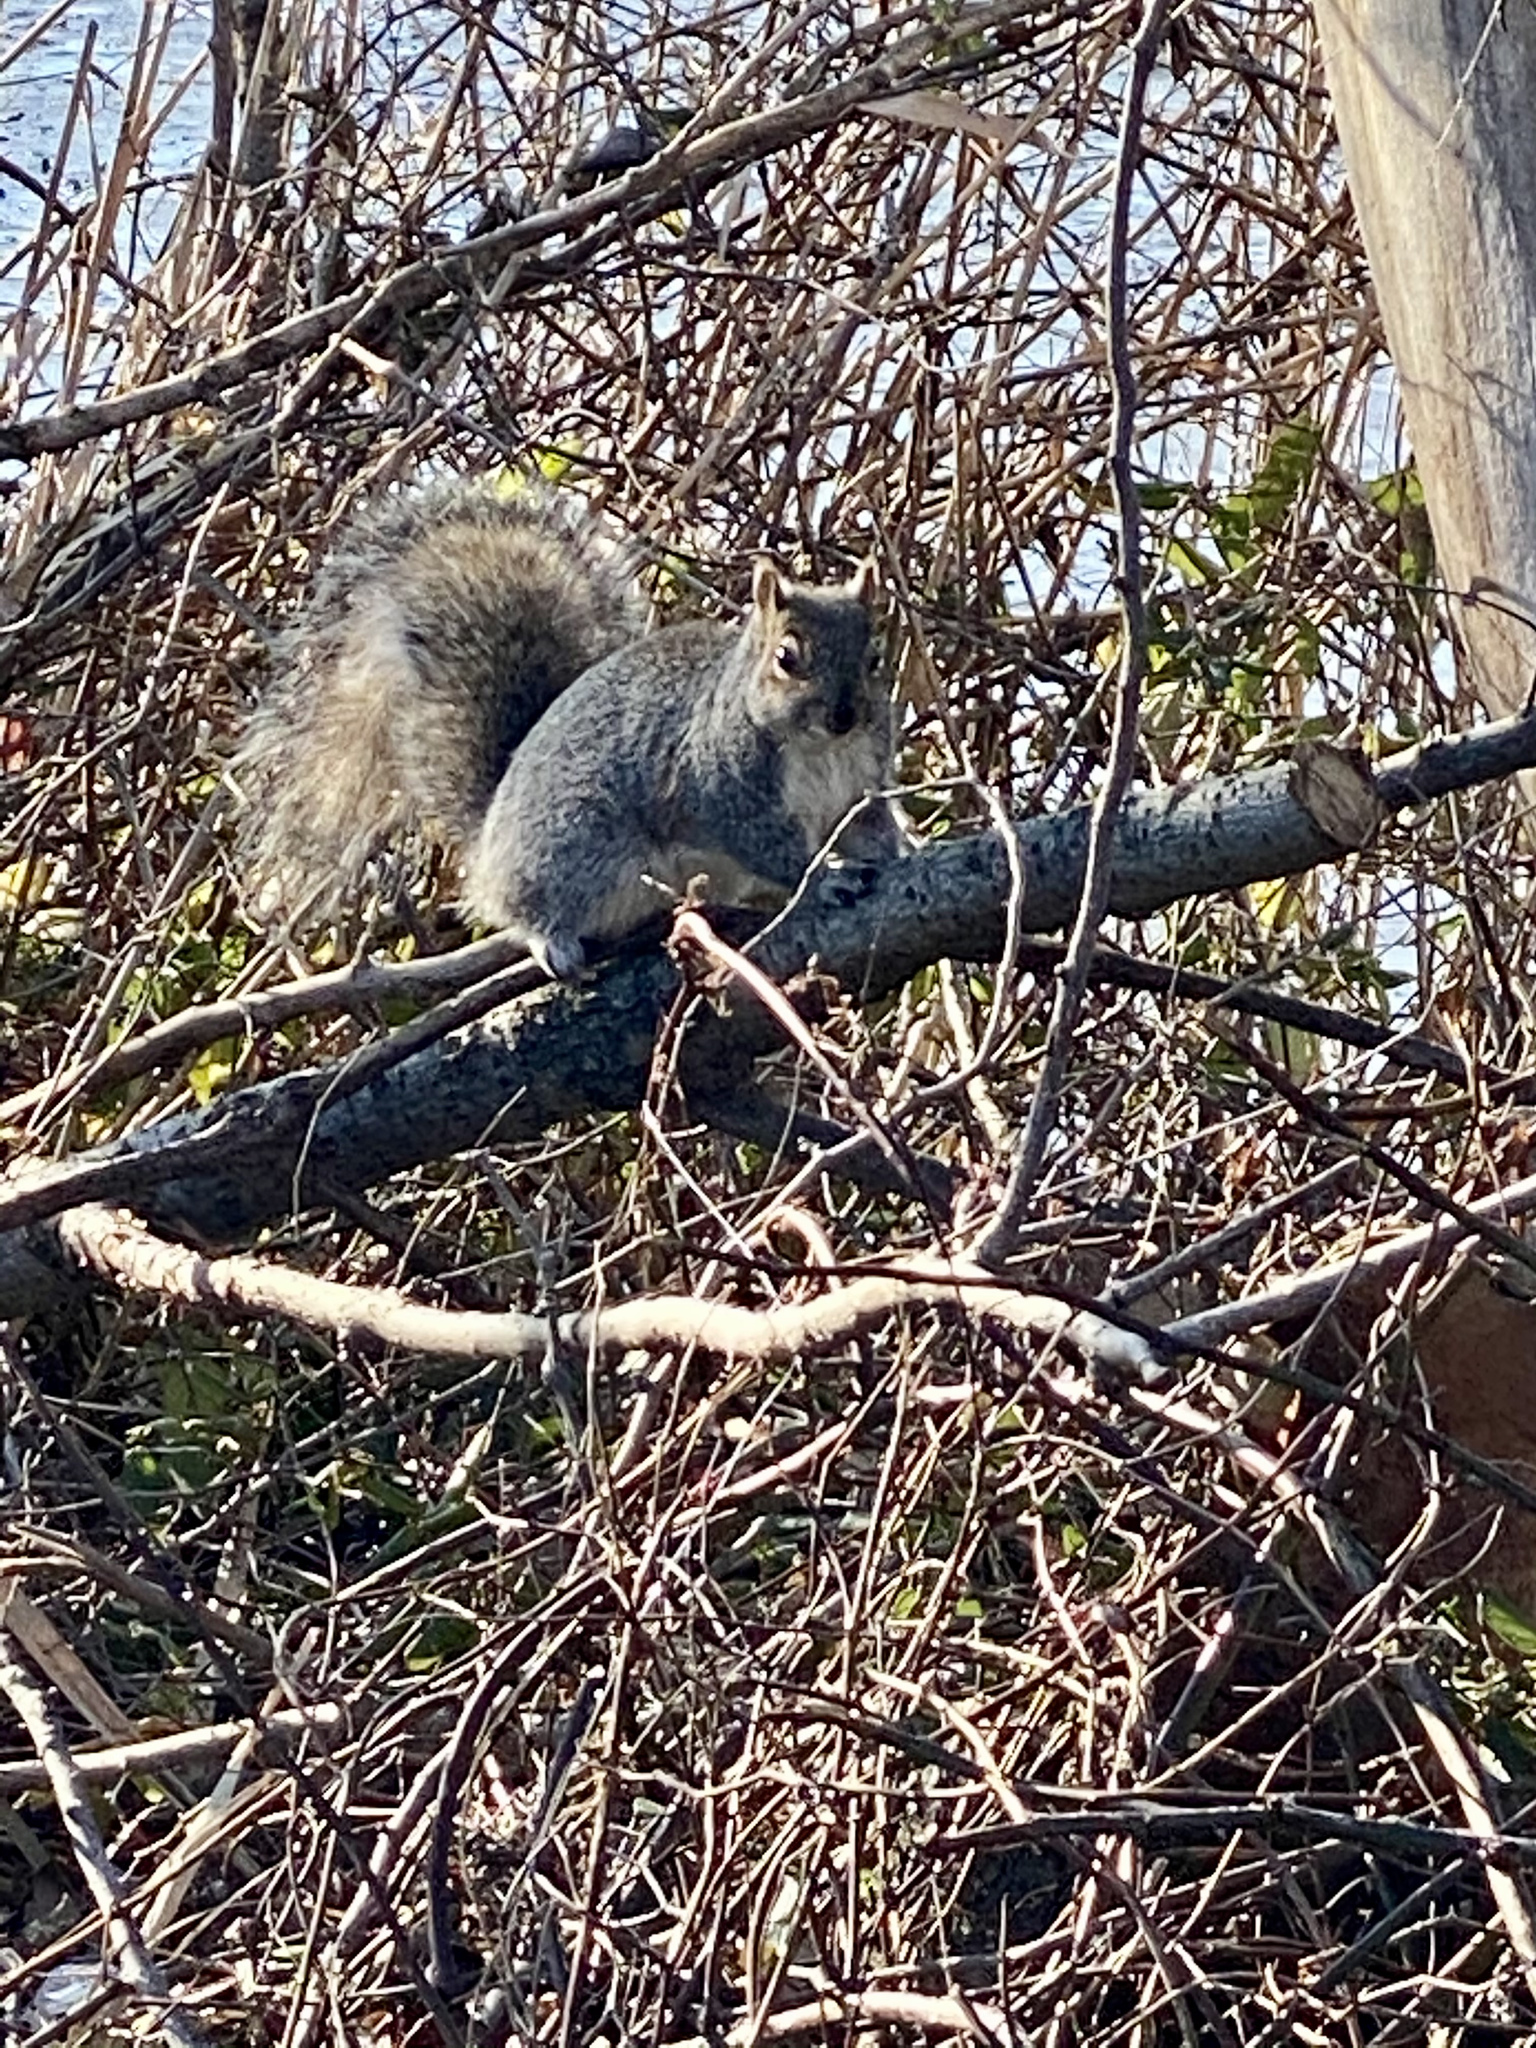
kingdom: Animalia
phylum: Chordata
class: Mammalia
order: Rodentia
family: Sciuridae
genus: Sciurus
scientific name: Sciurus carolinensis
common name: Eastern gray squirrel
